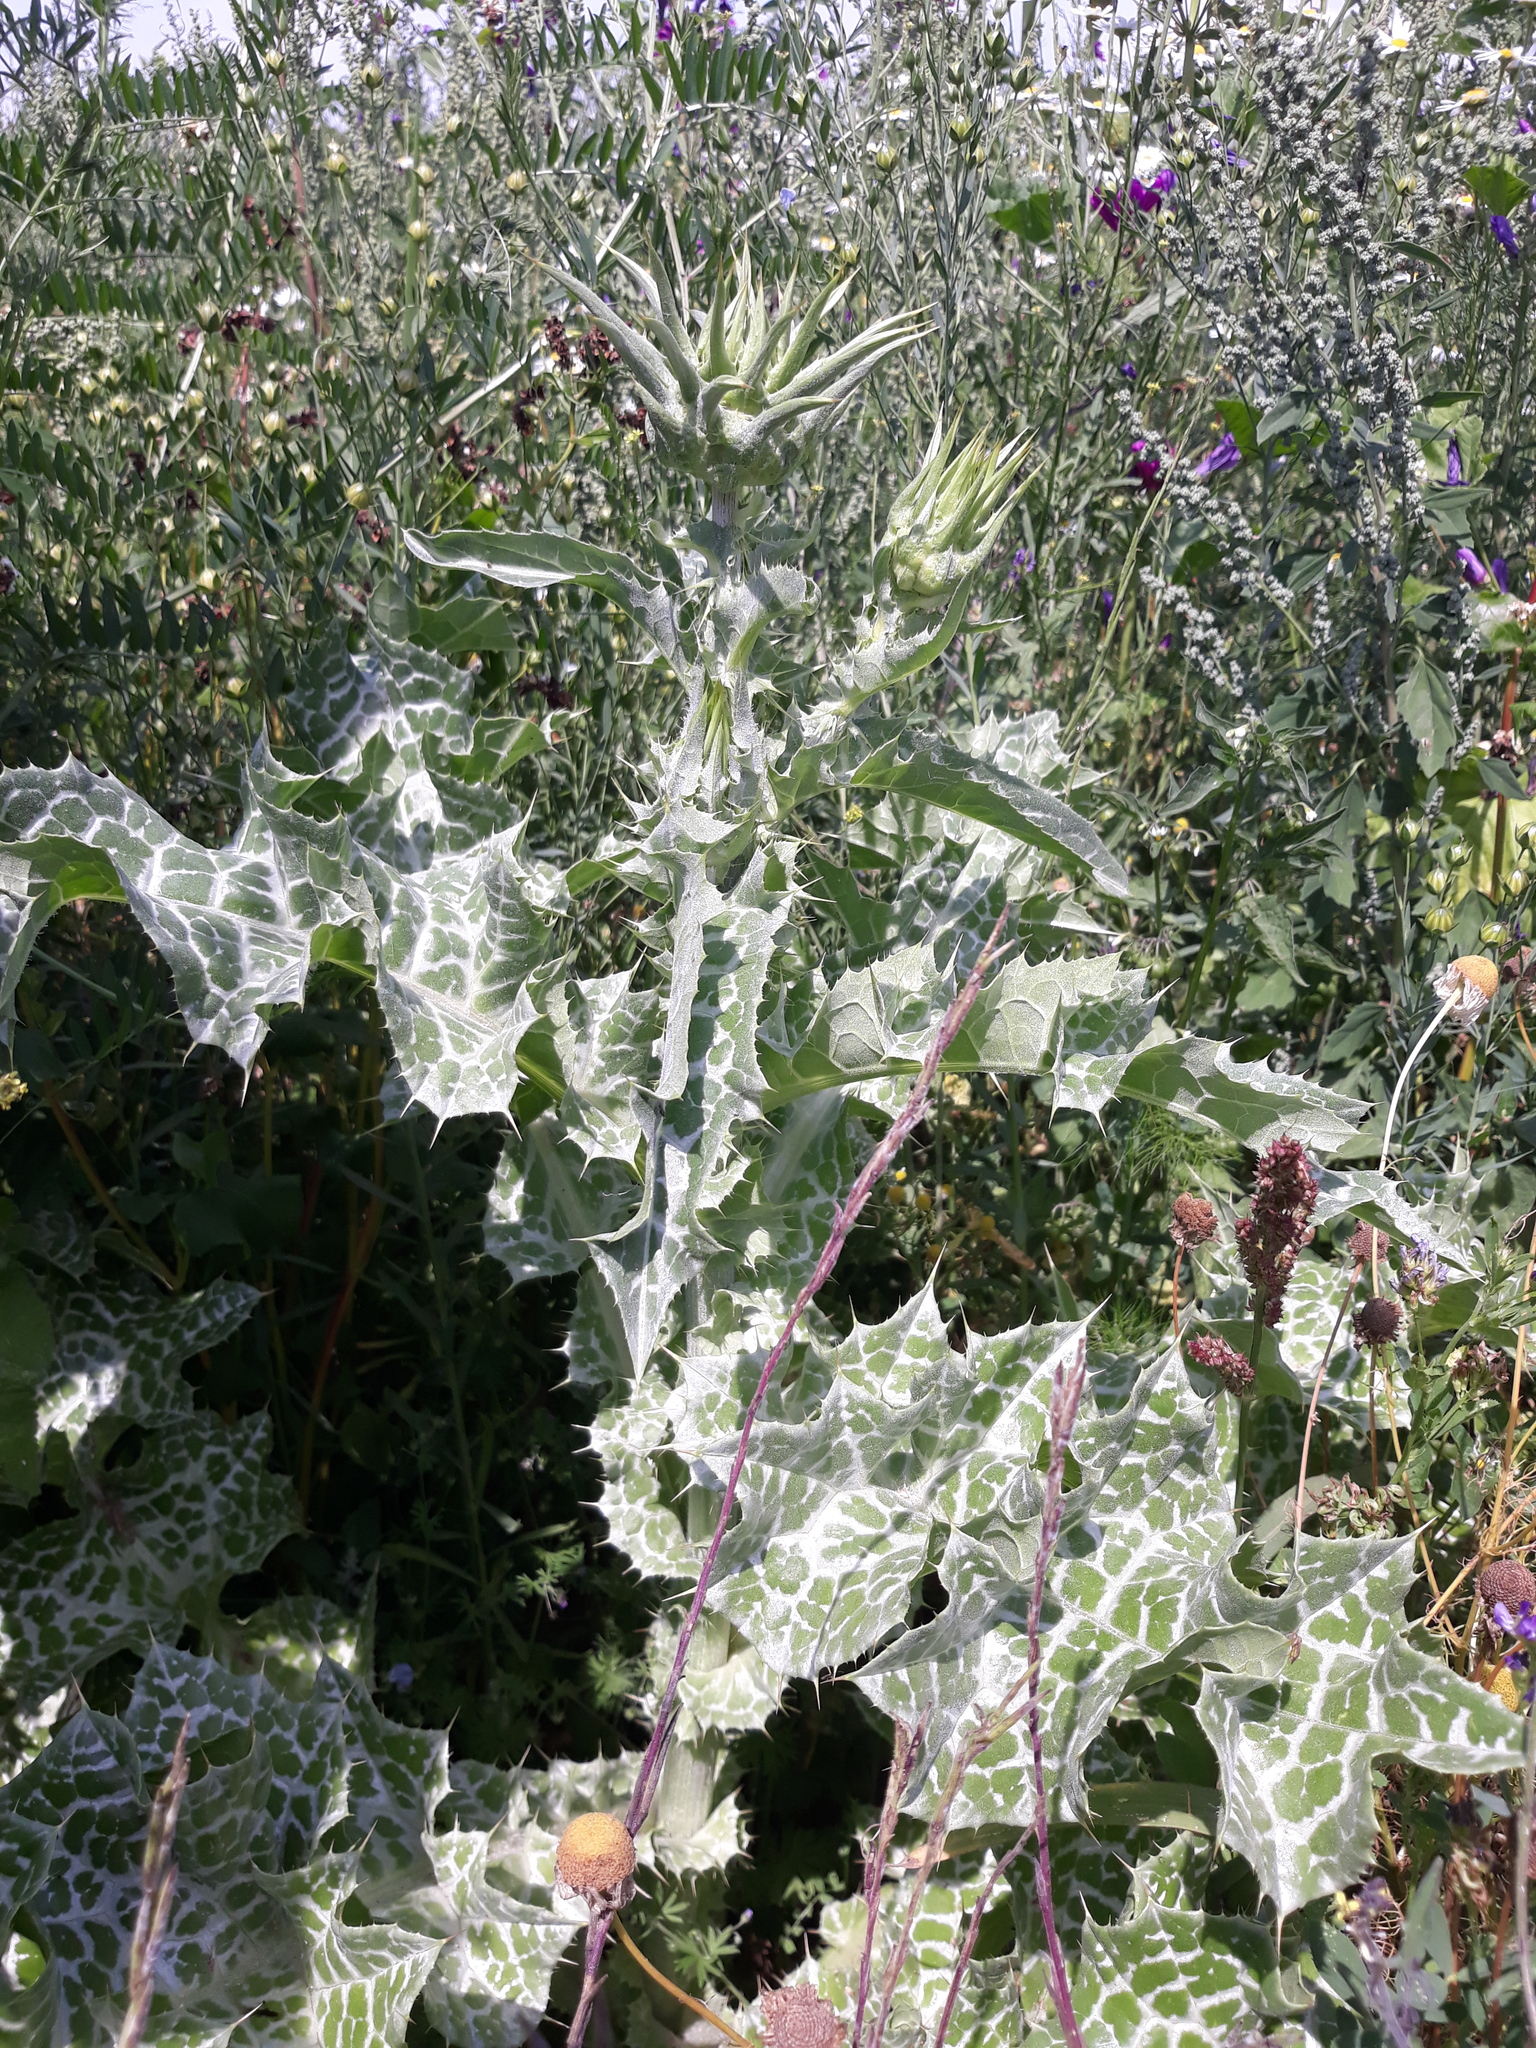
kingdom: Plantae
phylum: Tracheophyta
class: Magnoliopsida
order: Asterales
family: Asteraceae
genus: Silybum
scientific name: Silybum marianum
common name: Milk thistle
